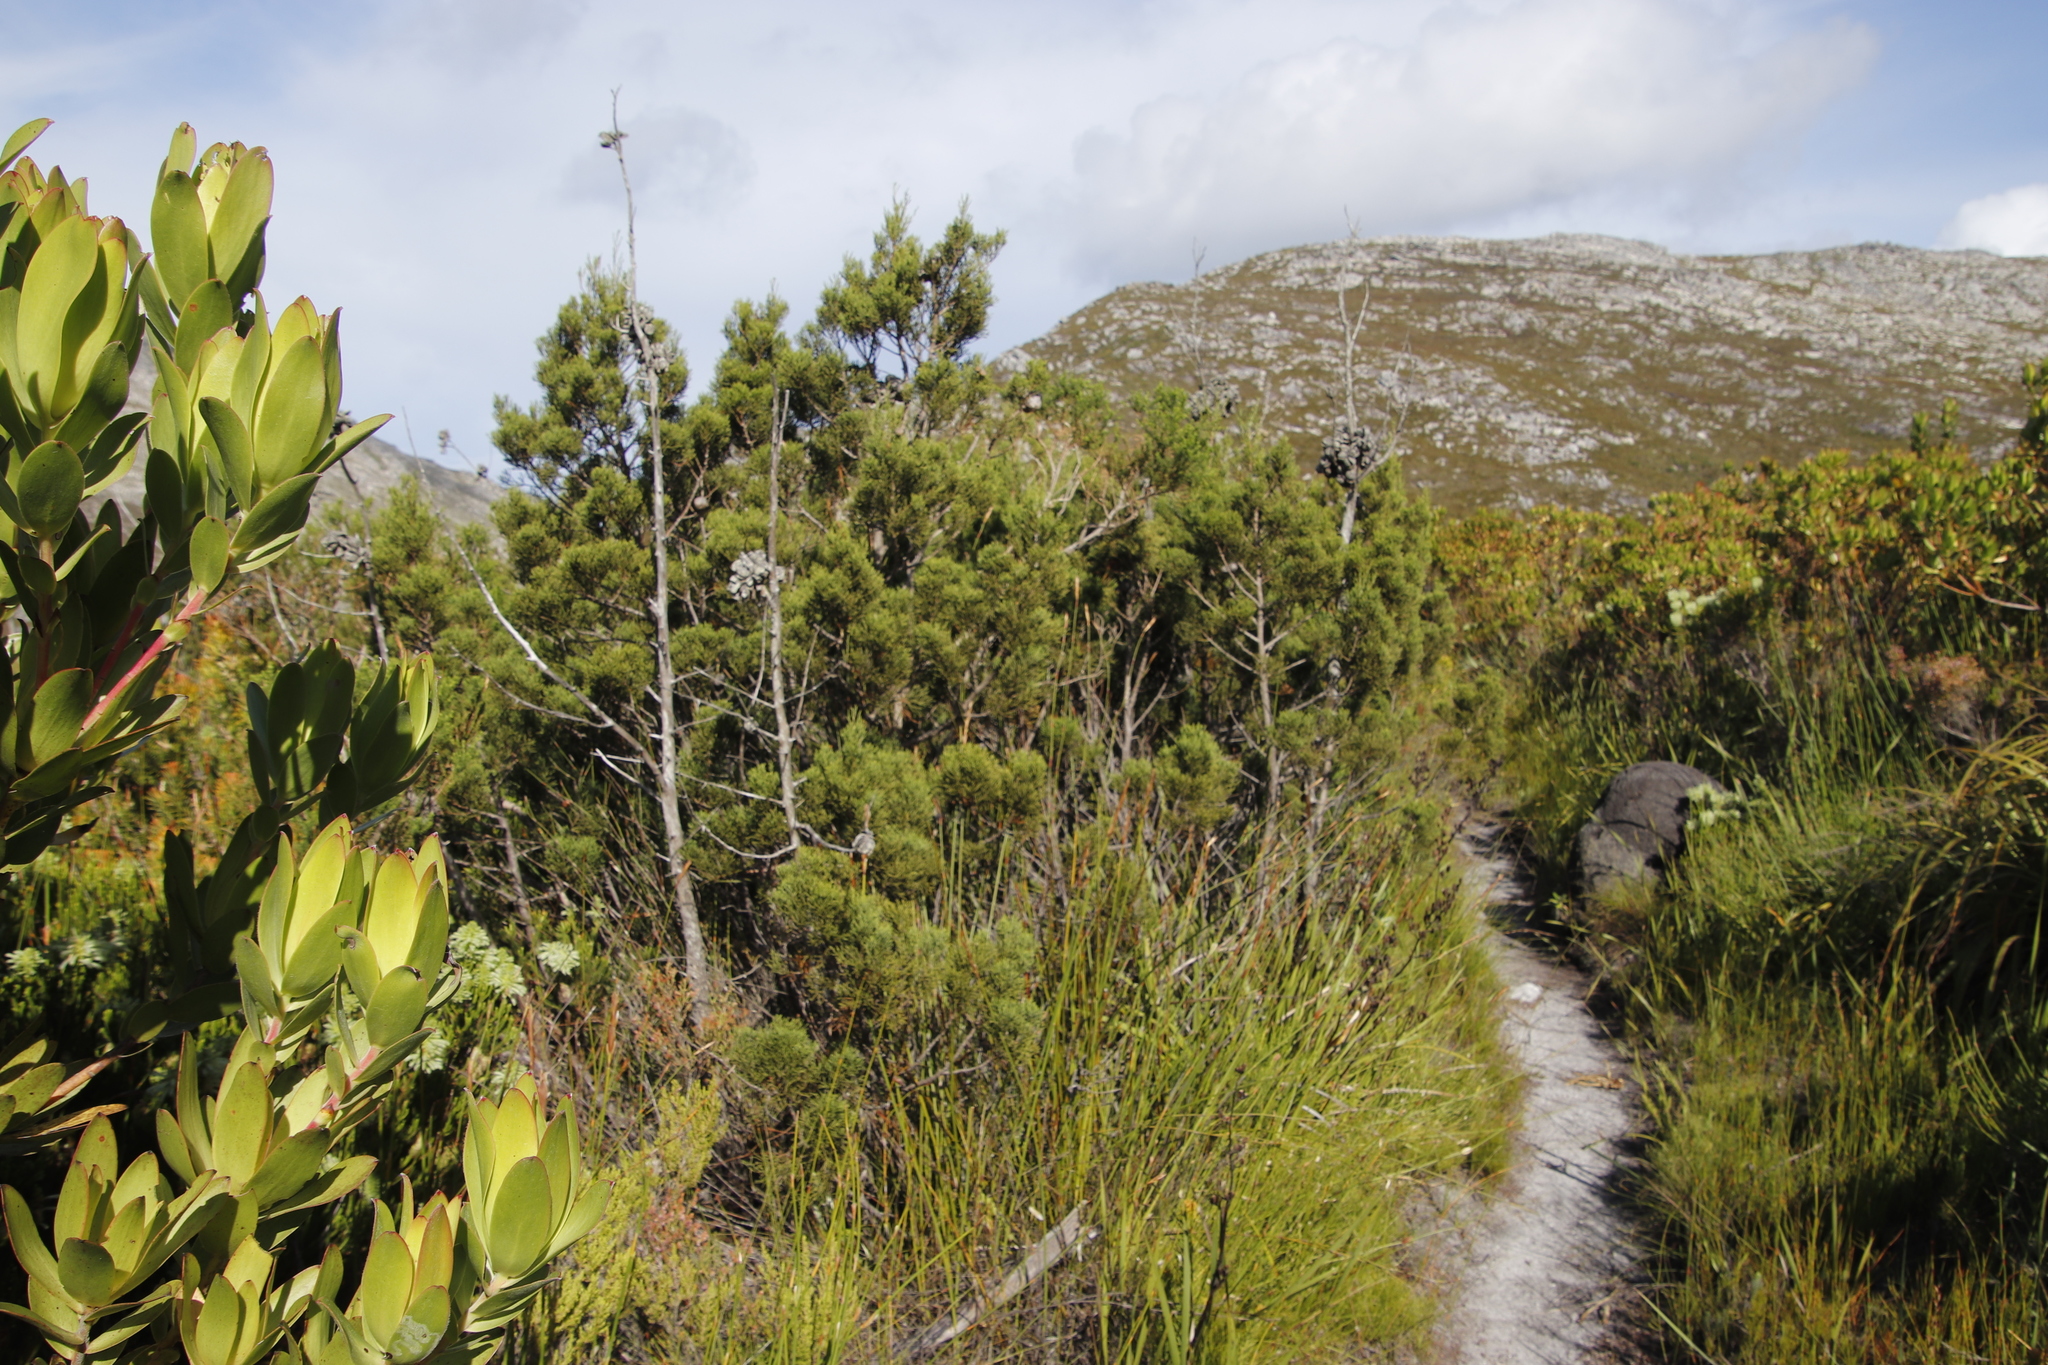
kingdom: Plantae
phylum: Tracheophyta
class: Pinopsida
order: Pinales
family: Cupressaceae
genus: Widdringtonia
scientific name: Widdringtonia nodiflora
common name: Cape cypress
